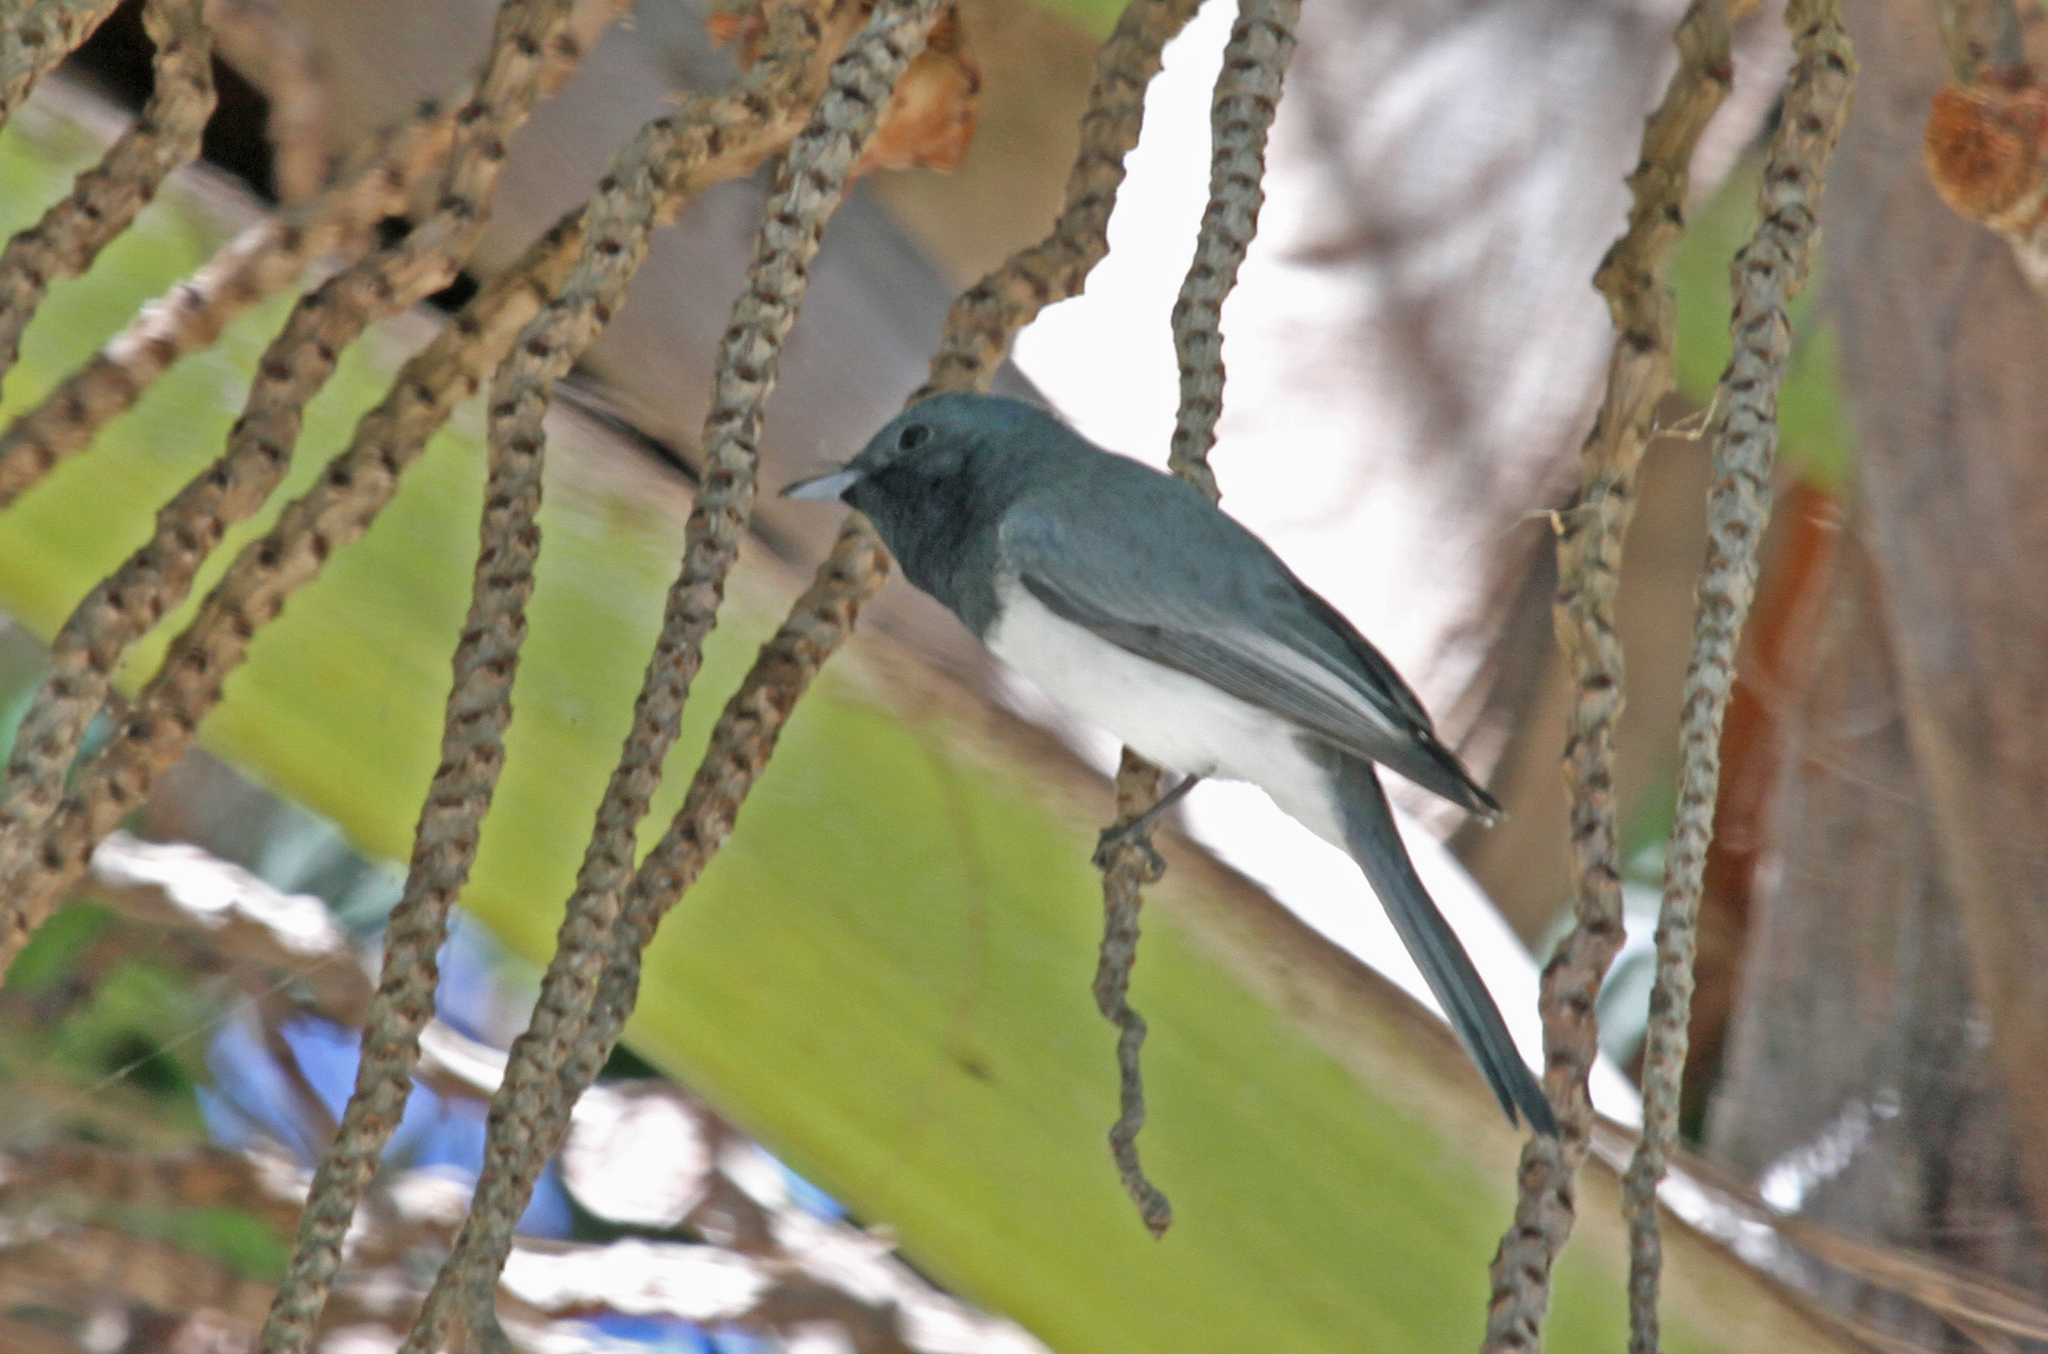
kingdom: Animalia
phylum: Chordata
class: Aves
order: Passeriformes
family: Monarchidae
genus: Myiagra
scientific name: Myiagra rubecula
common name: Leaden flycatcher
